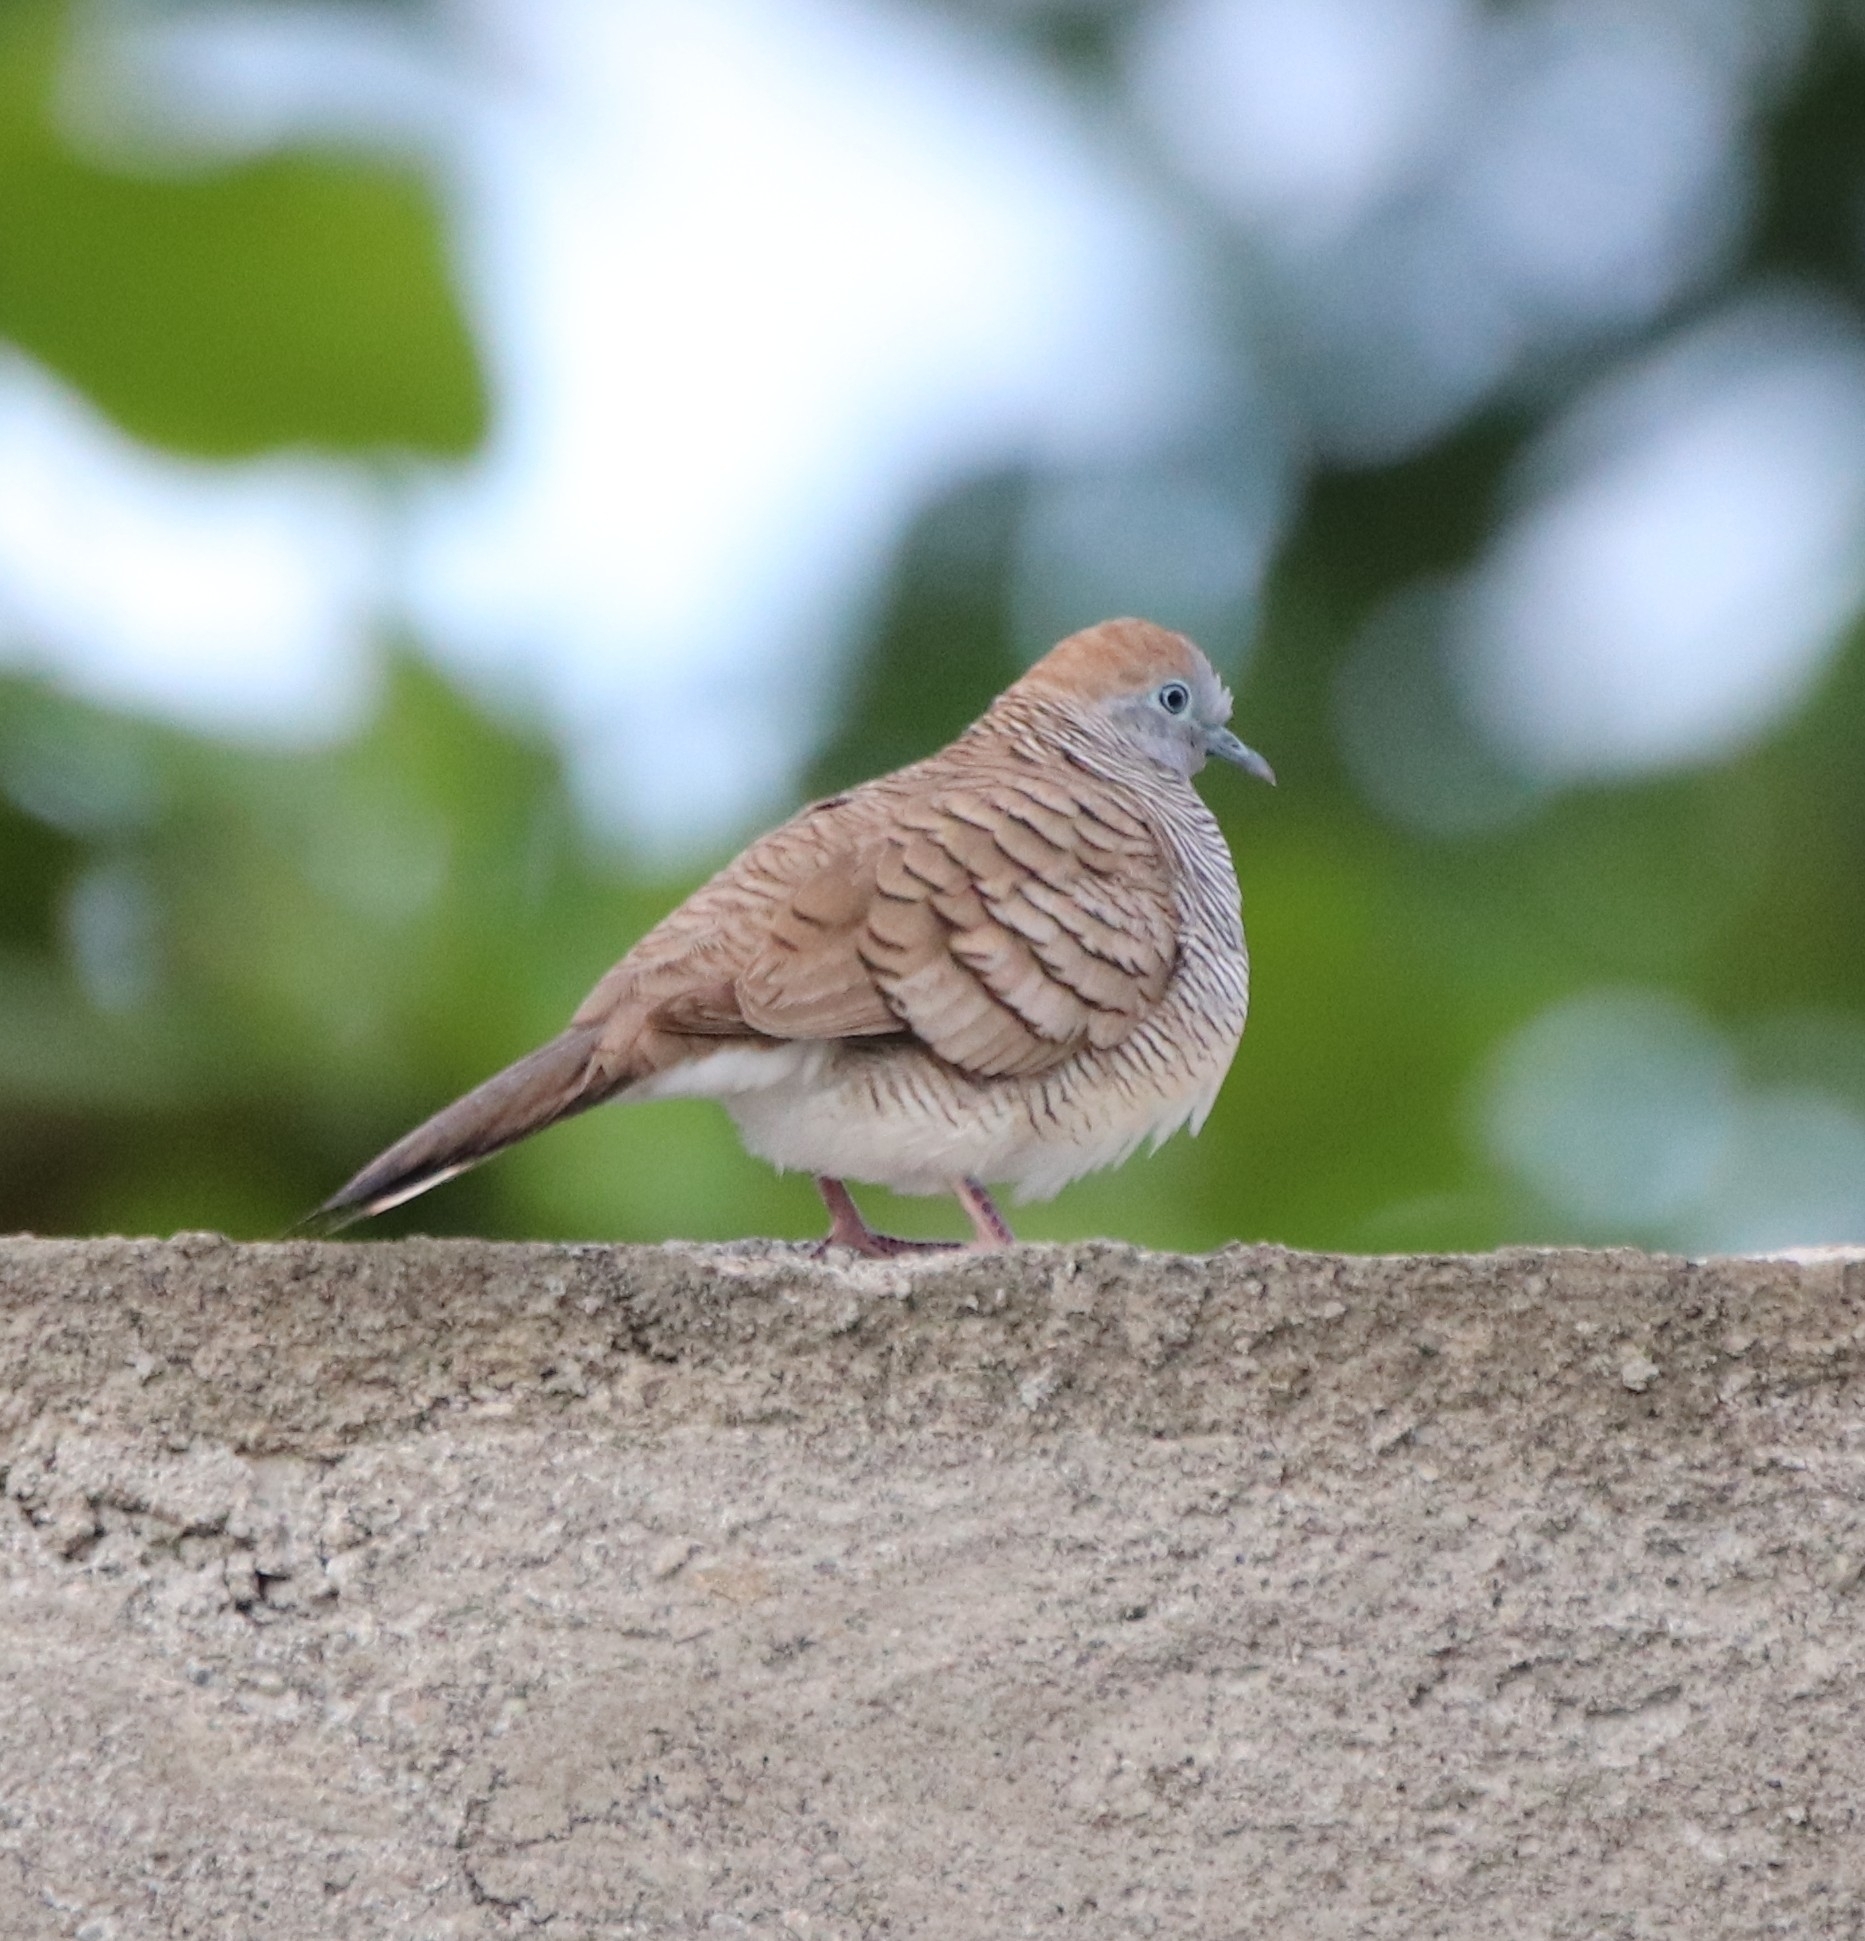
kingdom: Animalia
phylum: Chordata
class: Aves
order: Columbiformes
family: Columbidae
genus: Geopelia
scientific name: Geopelia striata
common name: Zebra dove
